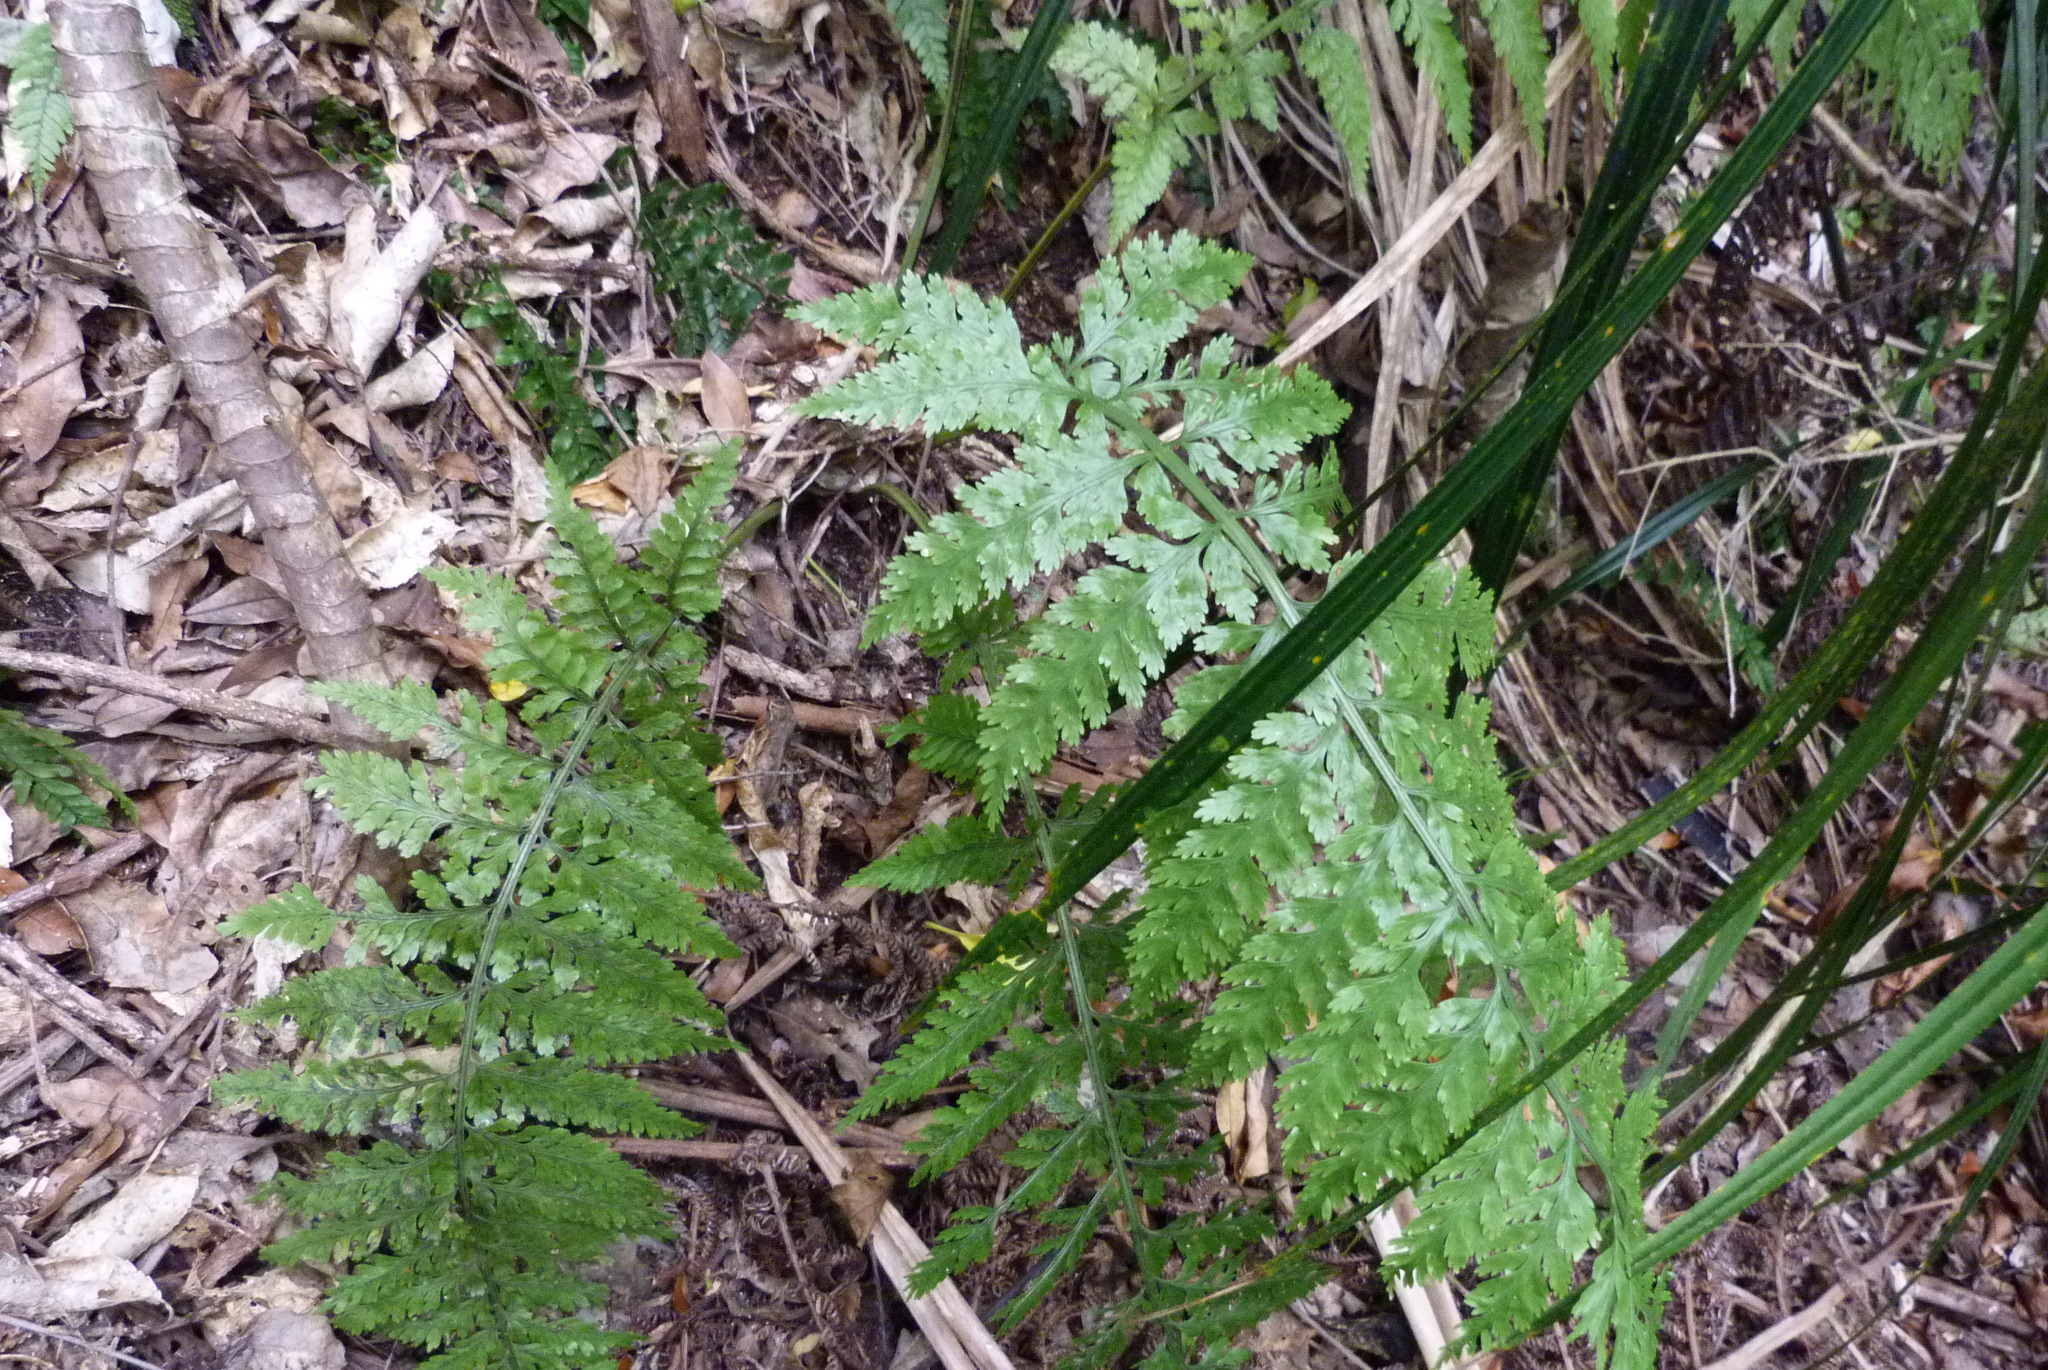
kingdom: Plantae
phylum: Tracheophyta
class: Polypodiopsida
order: Polypodiales
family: Aspleniaceae
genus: Asplenium
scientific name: Asplenium bulbiferum
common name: Mother fern
